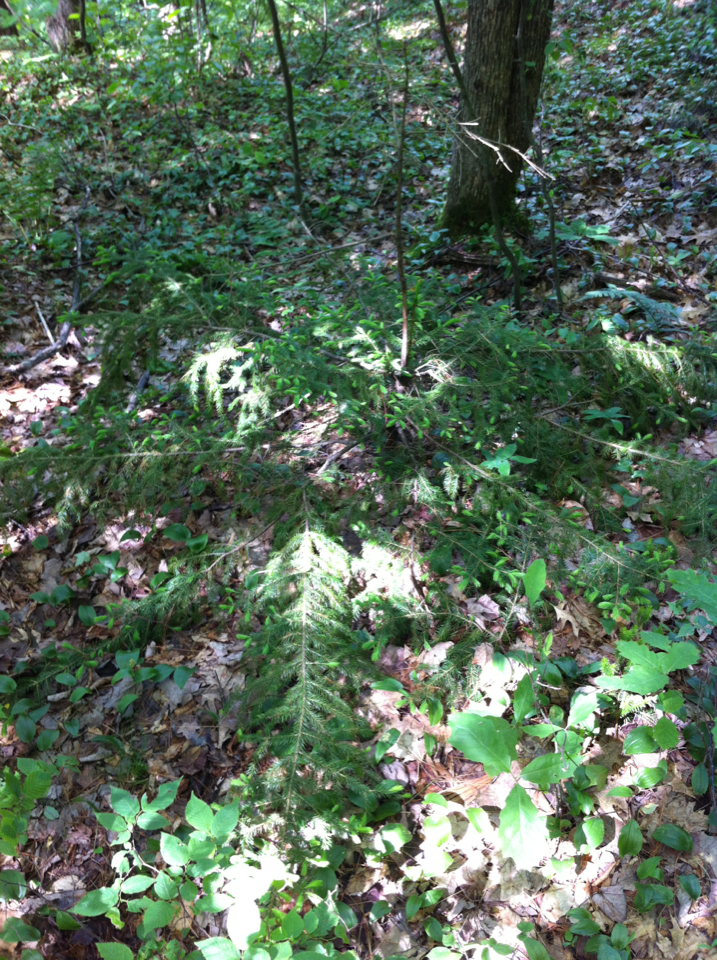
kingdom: Plantae
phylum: Tracheophyta
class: Pinopsida
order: Pinales
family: Pinaceae
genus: Picea
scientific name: Picea rubens
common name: Red spruce
